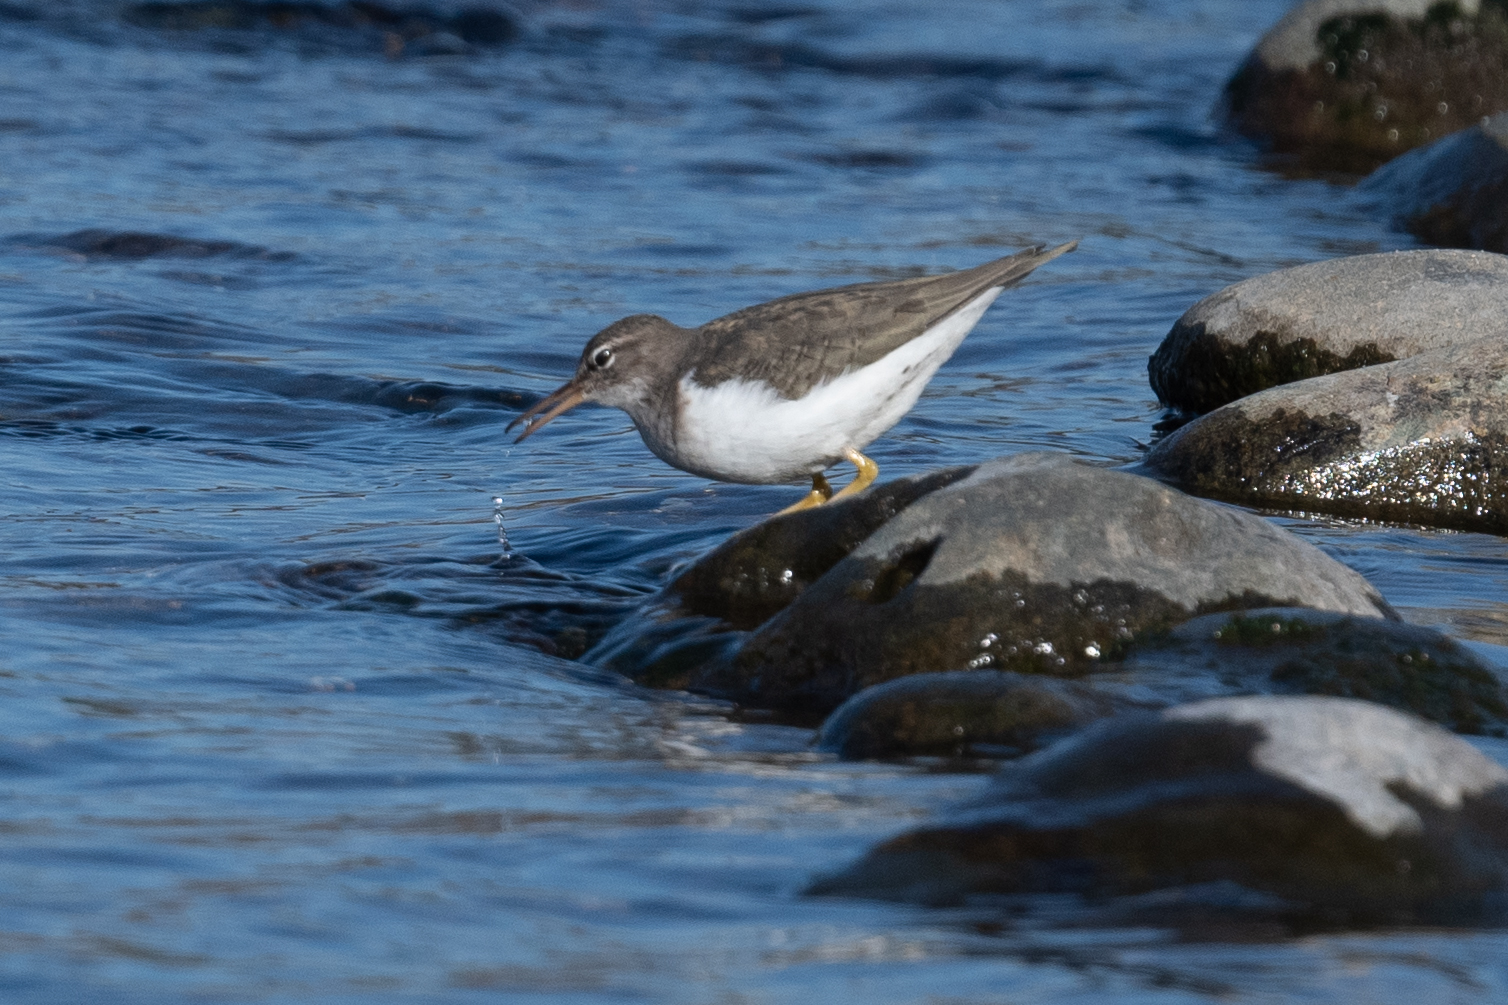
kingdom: Animalia
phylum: Chordata
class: Aves
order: Charadriiformes
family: Scolopacidae
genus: Actitis
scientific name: Actitis macularius
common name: Spotted sandpiper
